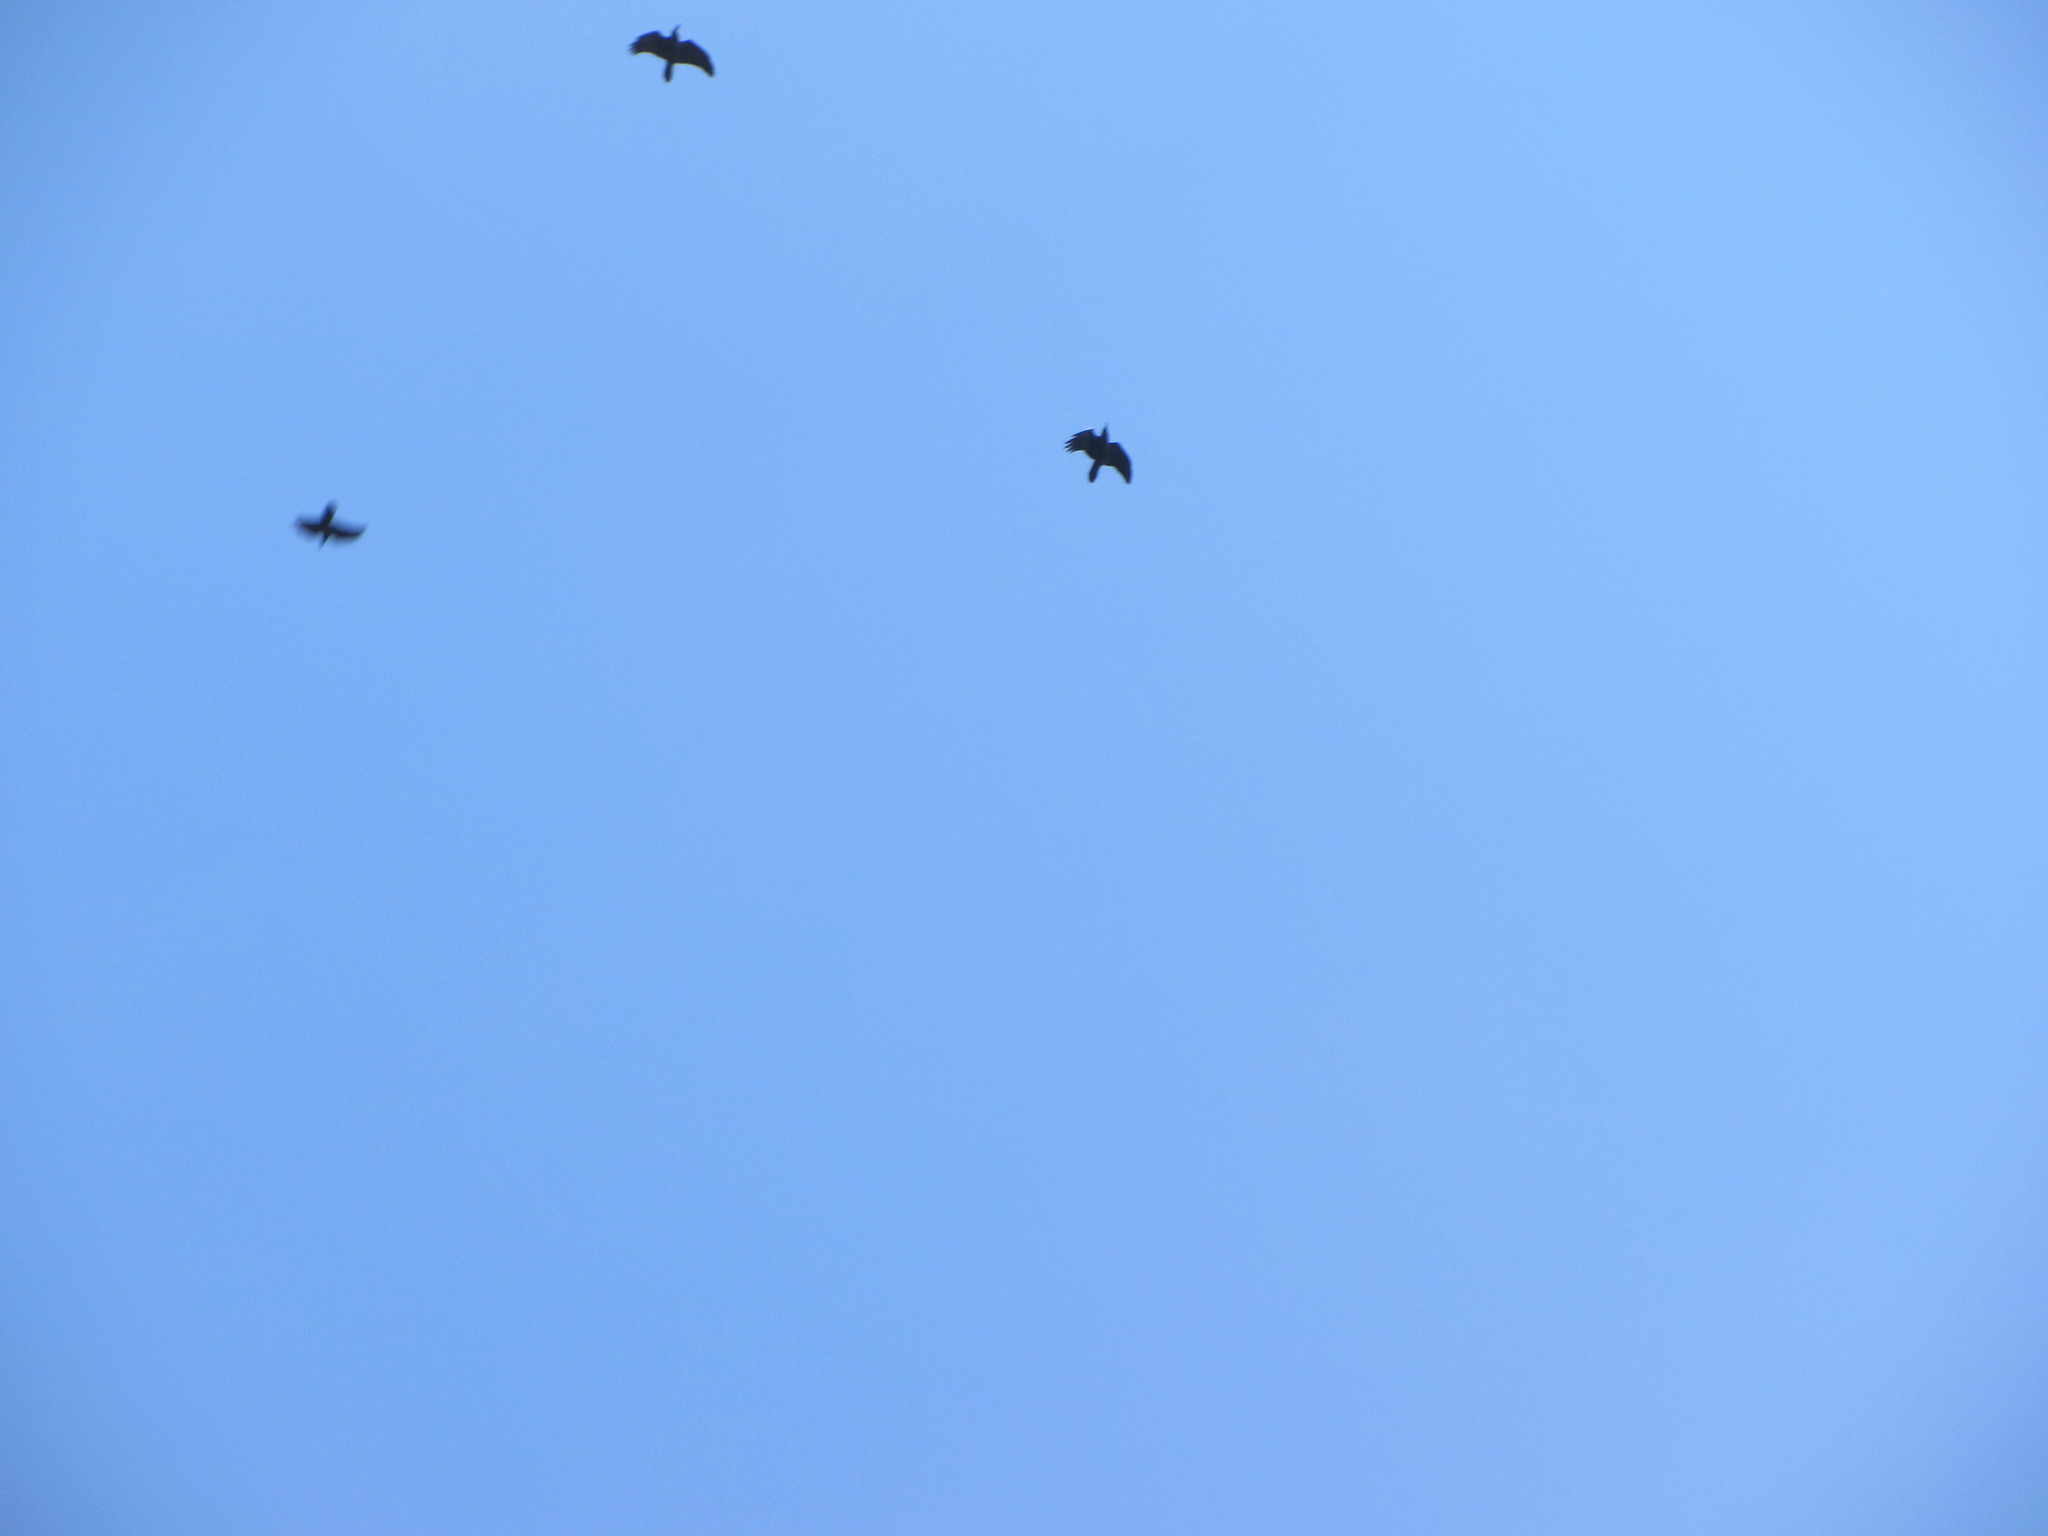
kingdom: Animalia
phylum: Chordata
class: Aves
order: Passeriformes
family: Corvidae
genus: Corvus
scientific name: Corvus corax
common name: Common raven
